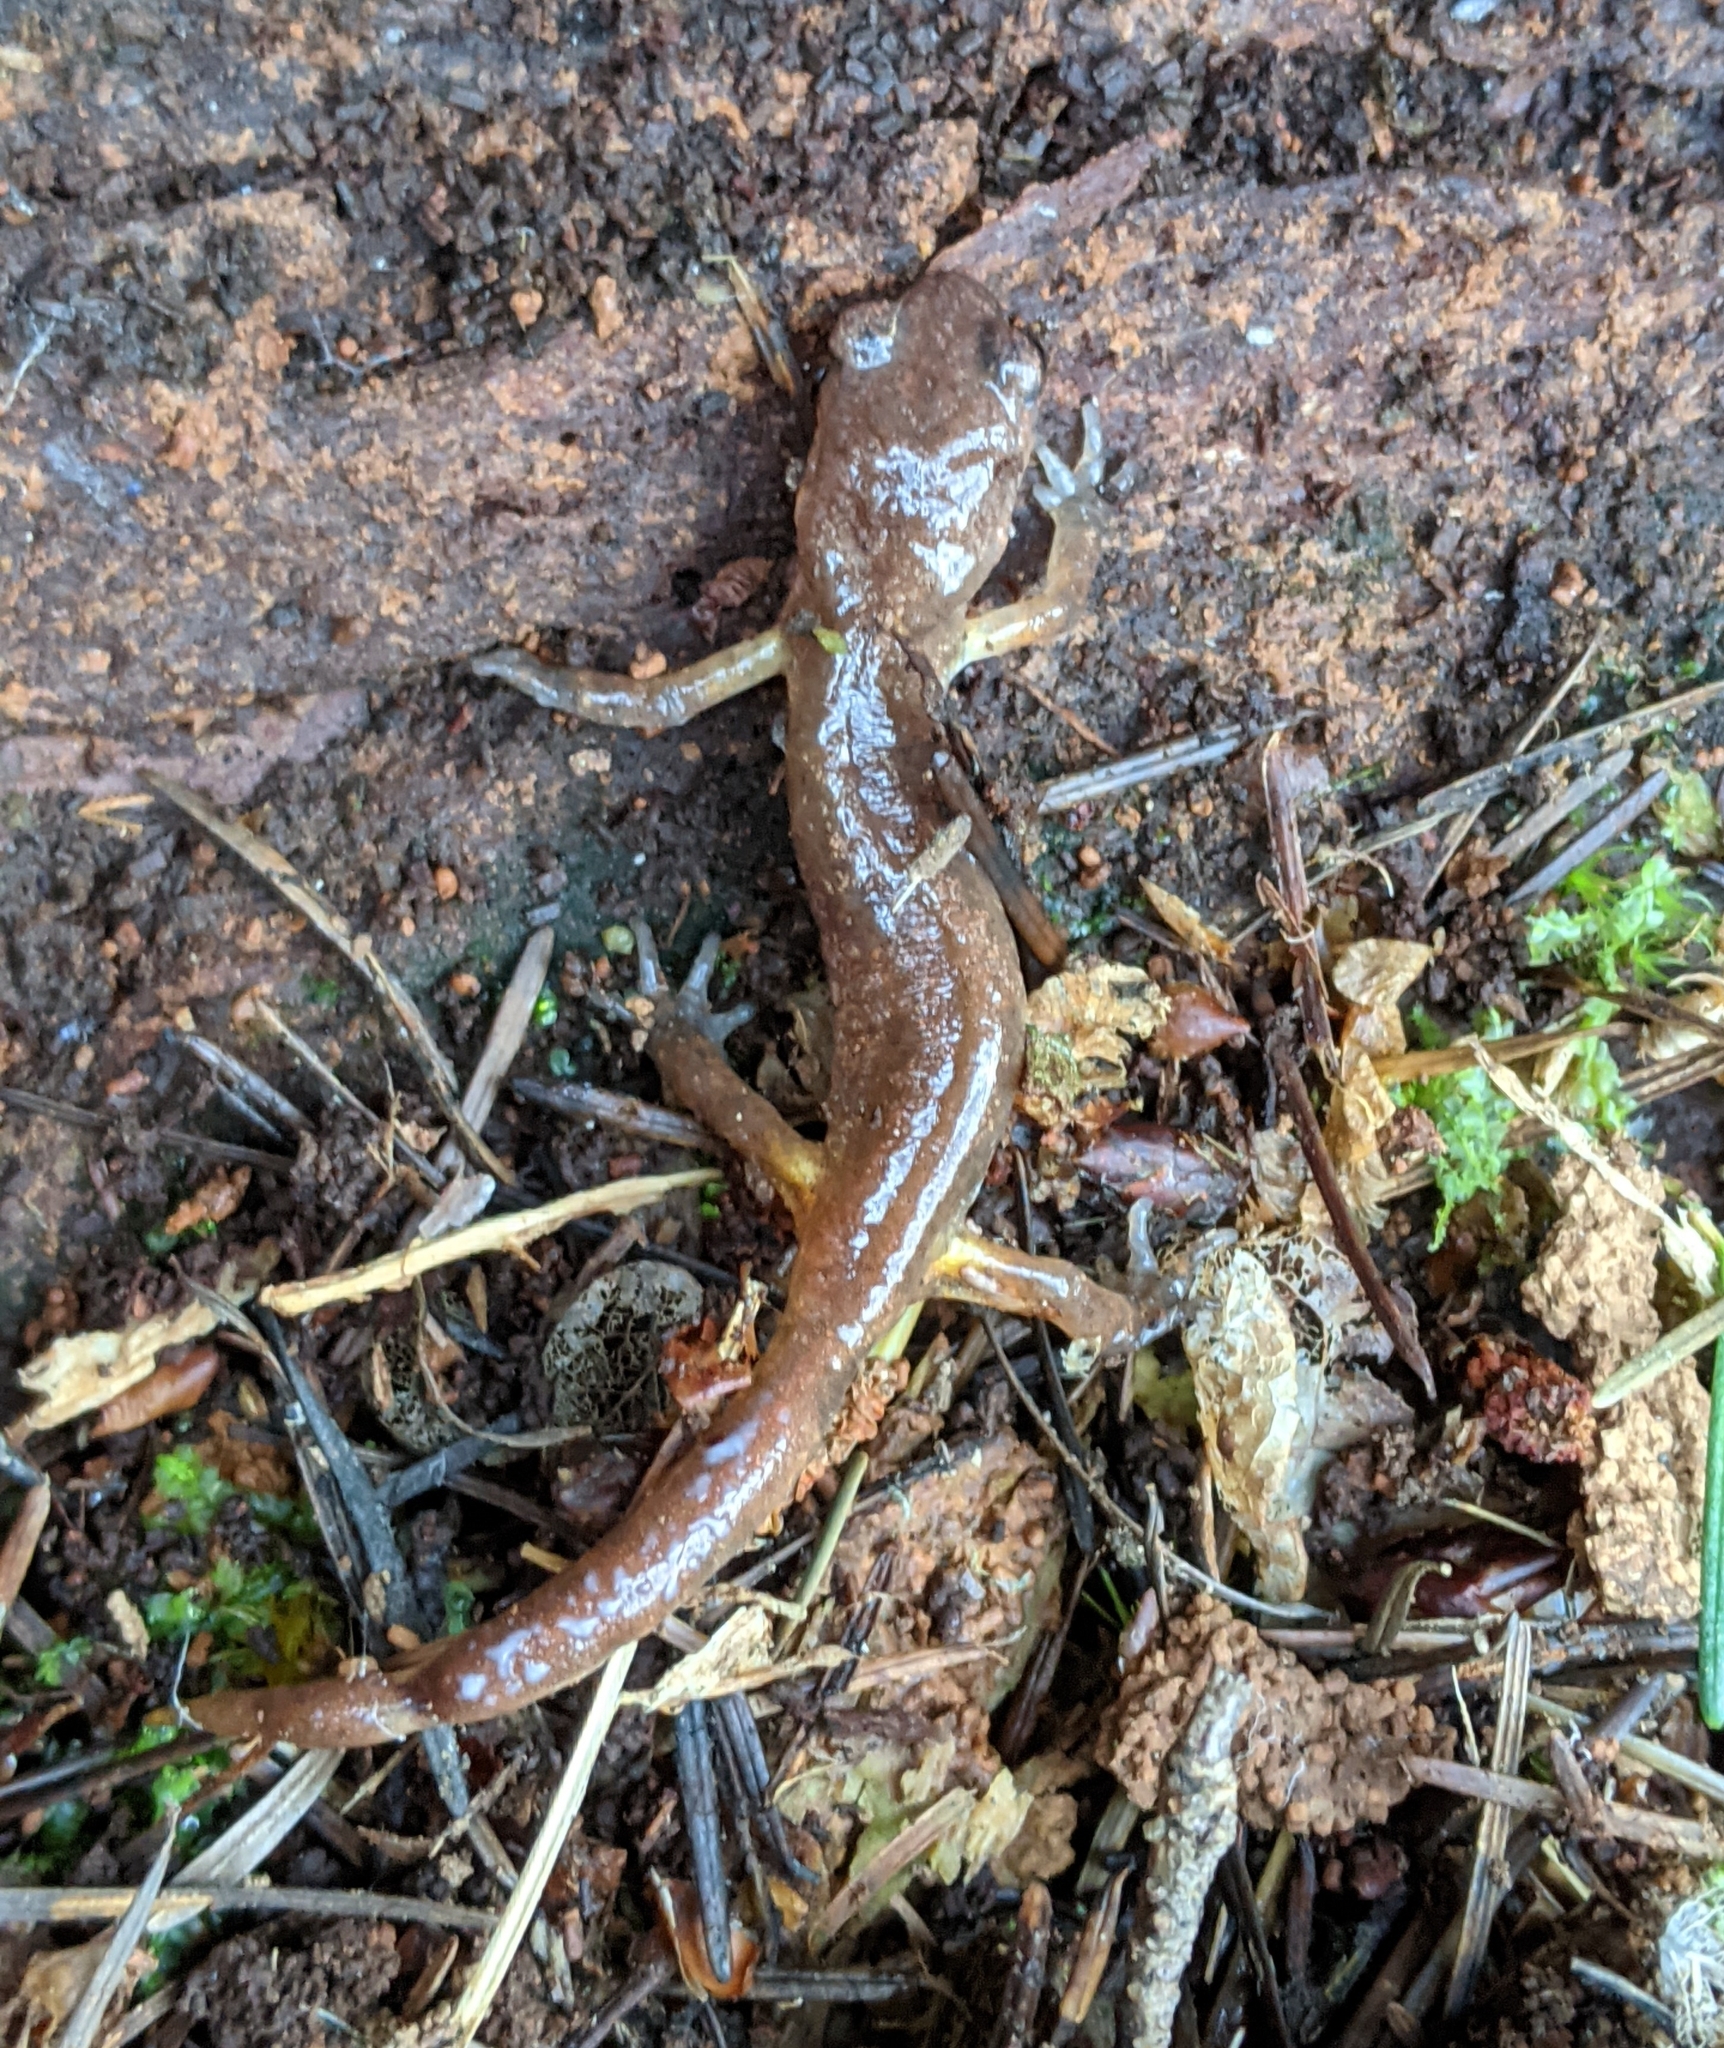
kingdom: Animalia
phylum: Chordata
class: Amphibia
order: Caudata
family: Plethodontidae
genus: Ensatina
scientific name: Ensatina eschscholtzii
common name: Ensatina
